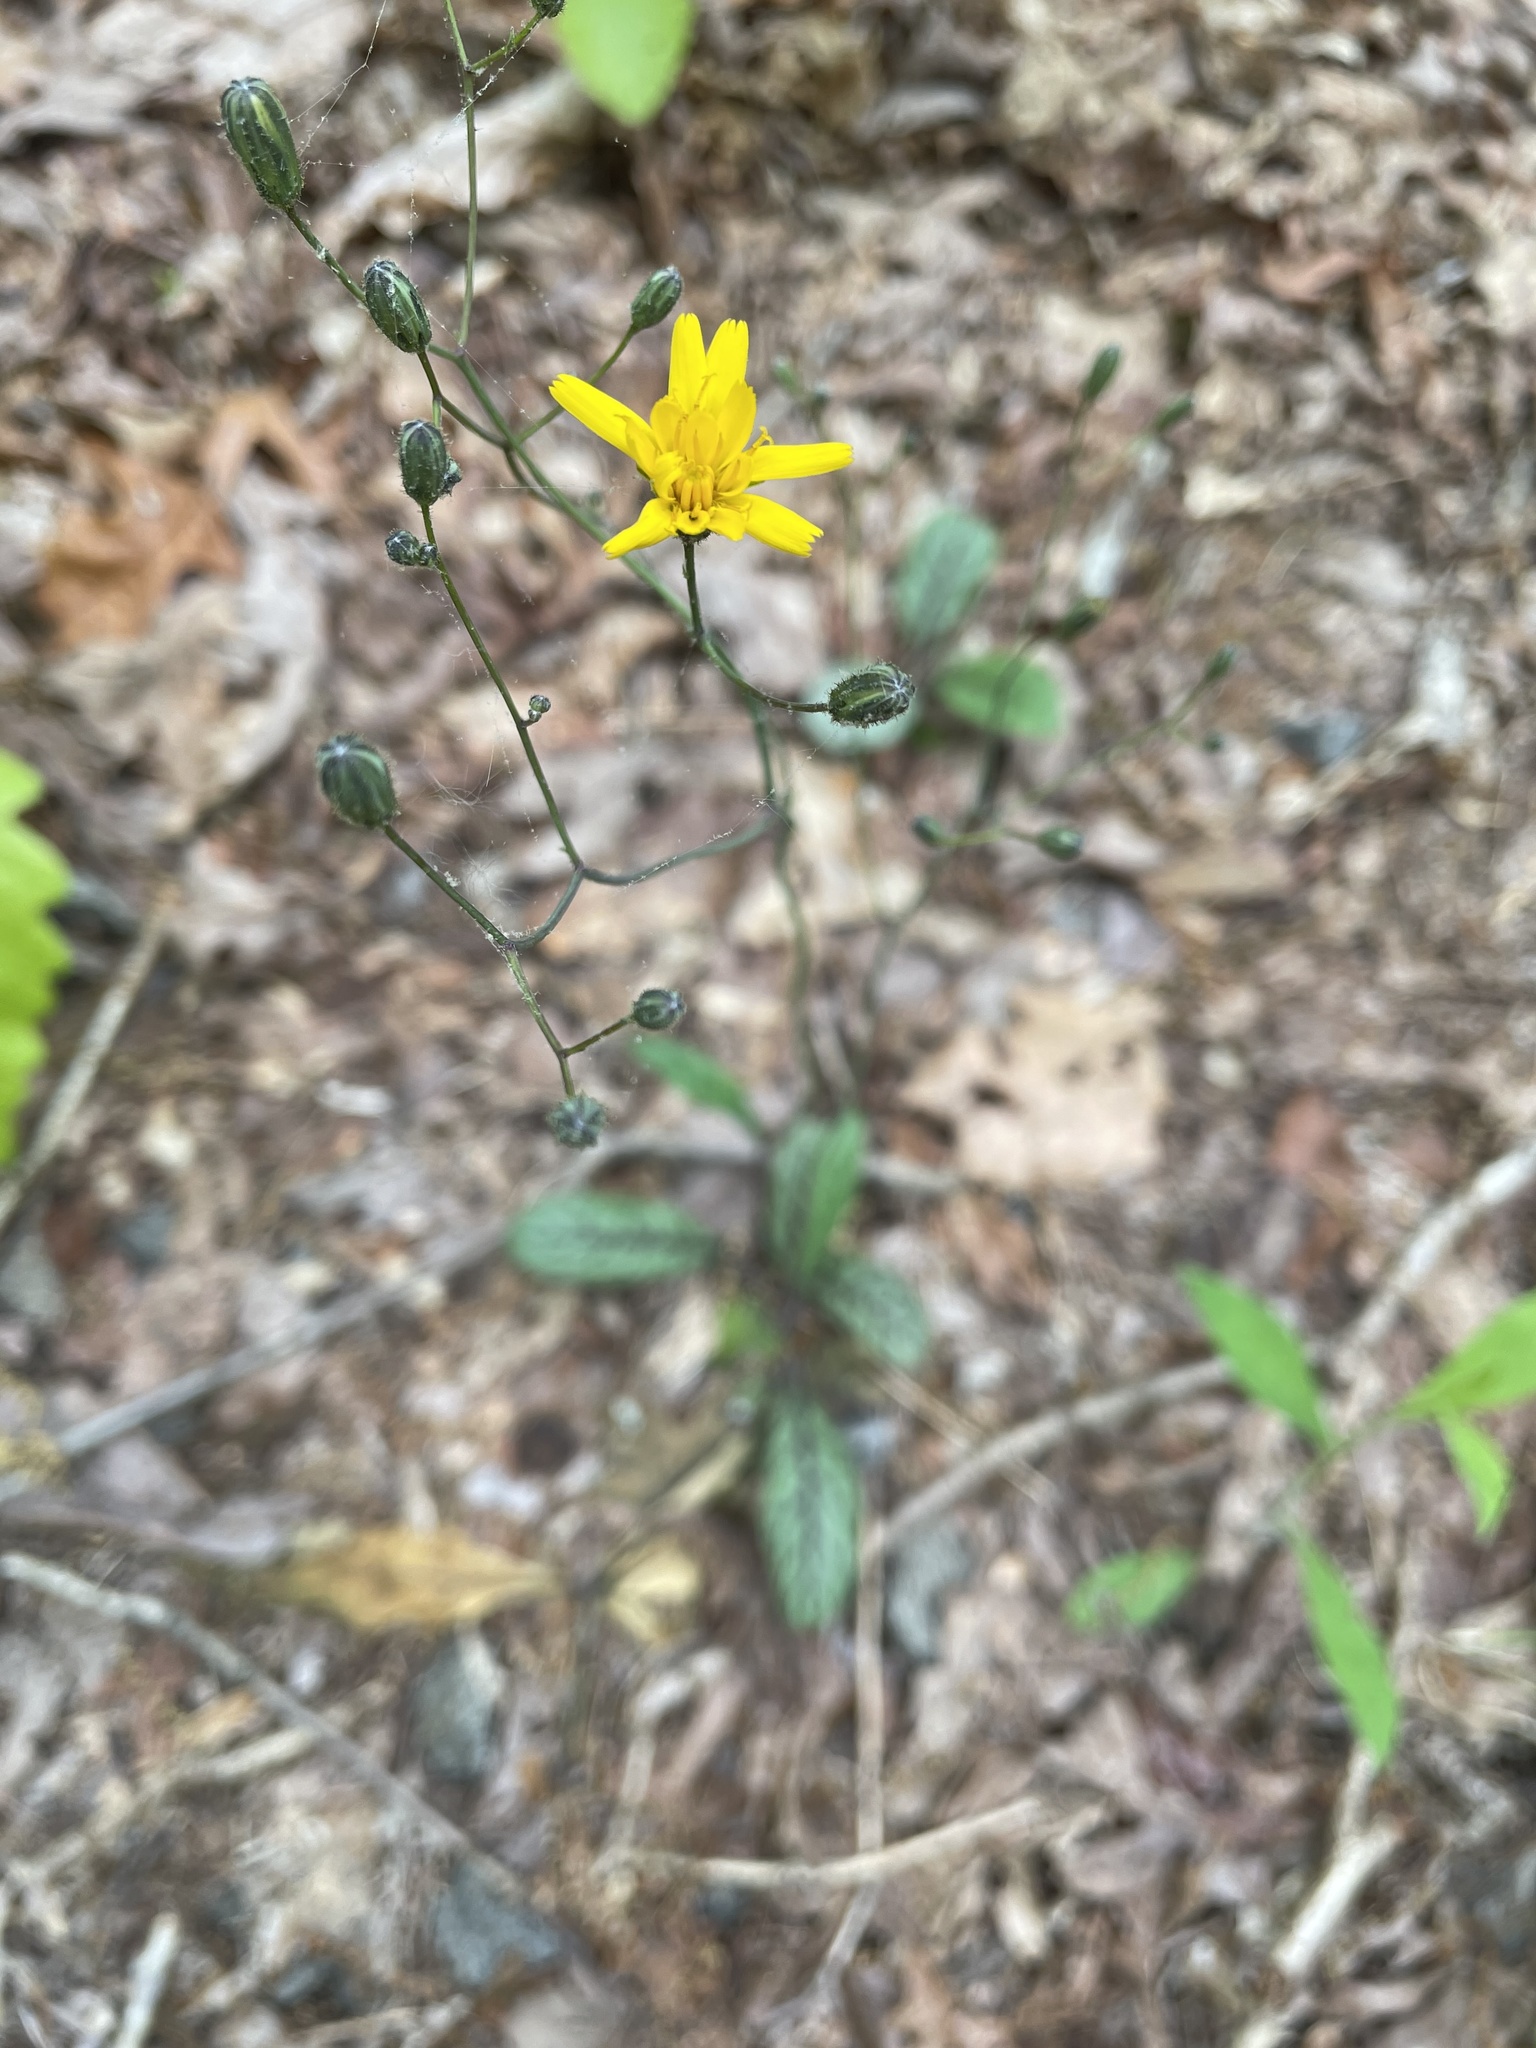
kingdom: Plantae
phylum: Tracheophyta
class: Magnoliopsida
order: Asterales
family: Asteraceae
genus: Hieracium
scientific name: Hieracium venosum
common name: Rattlesnake hawkweed
